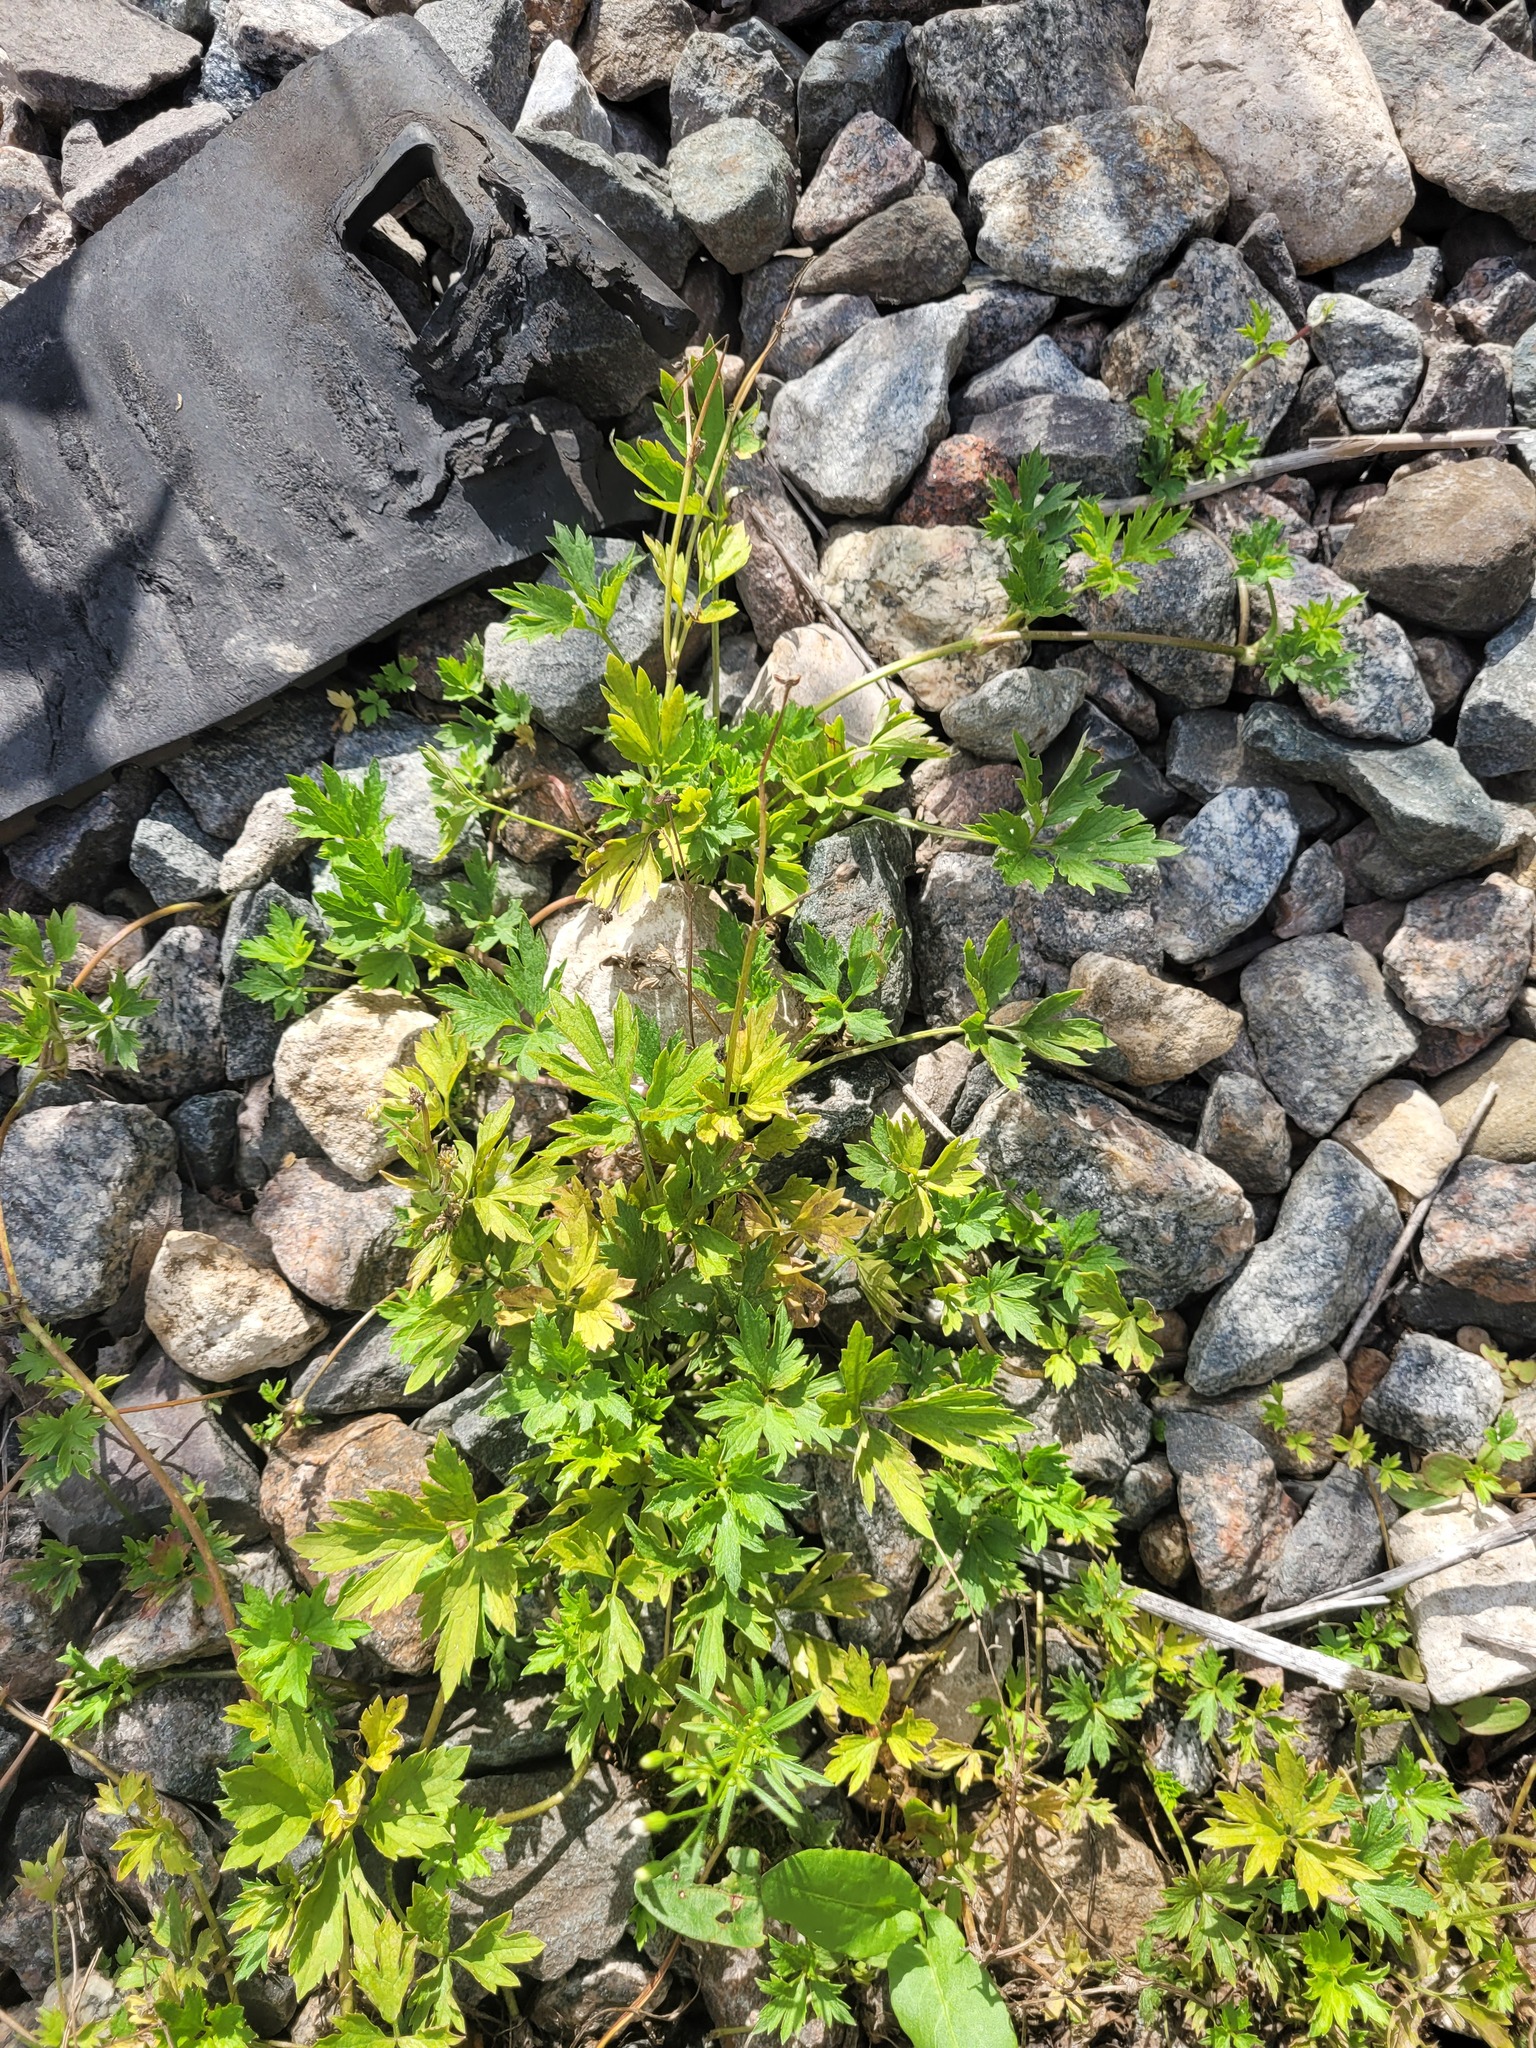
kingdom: Plantae
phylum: Tracheophyta
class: Magnoliopsida
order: Ranunculales
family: Ranunculaceae
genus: Ranunculus
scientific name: Ranunculus repens
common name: Creeping buttercup
